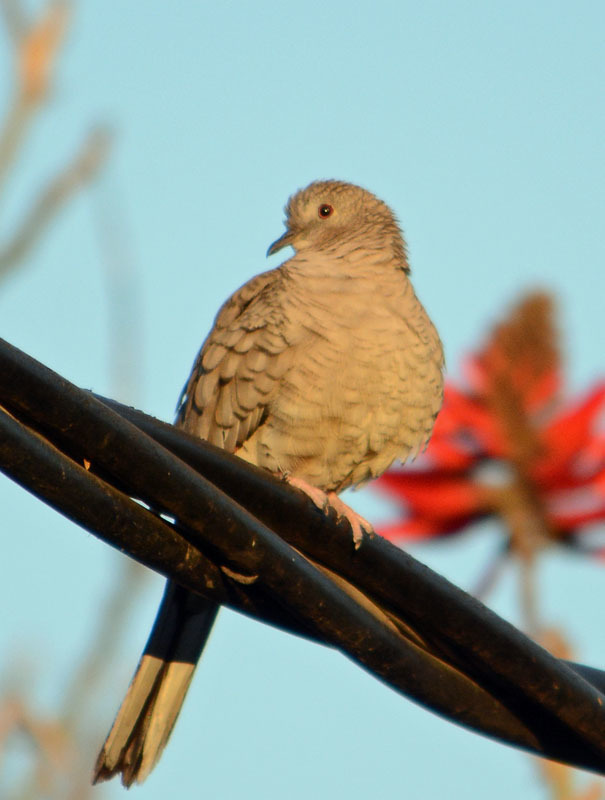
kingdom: Animalia
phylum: Chordata
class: Aves
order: Columbiformes
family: Columbidae
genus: Columbina
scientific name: Columbina inca
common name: Inca dove
